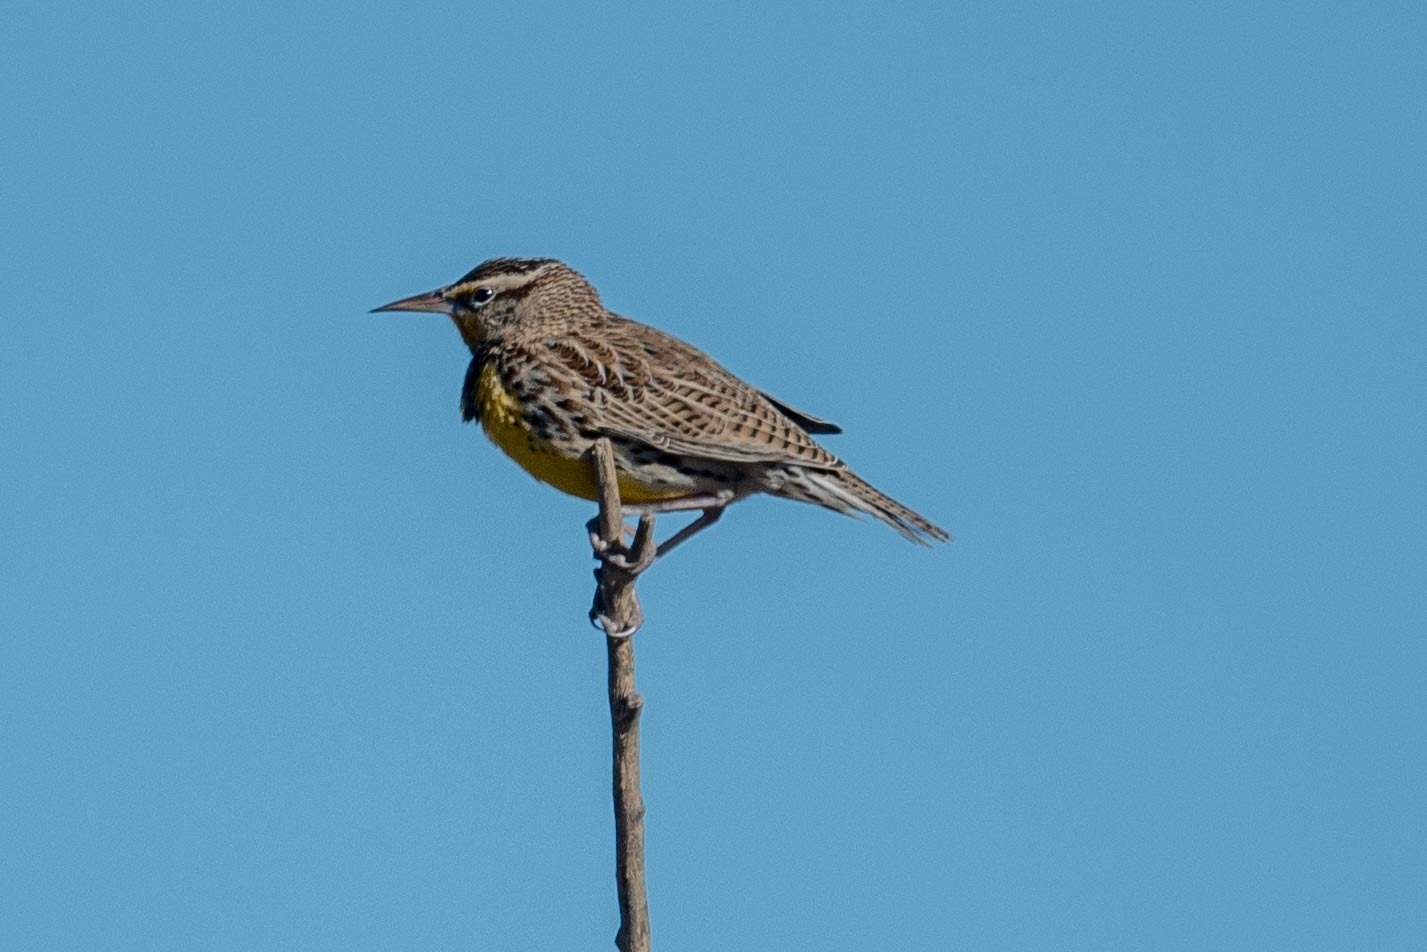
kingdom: Animalia
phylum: Chordata
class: Aves
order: Passeriformes
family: Icteridae
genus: Sturnella
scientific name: Sturnella neglecta
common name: Western meadowlark
